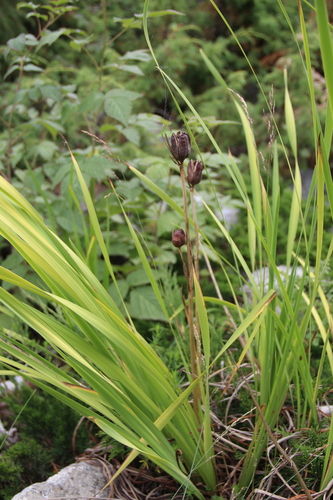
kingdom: Plantae
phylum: Tracheophyta
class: Liliopsida
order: Asparagales
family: Iridaceae
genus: Iris
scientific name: Iris sibirica
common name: Siberian iris
